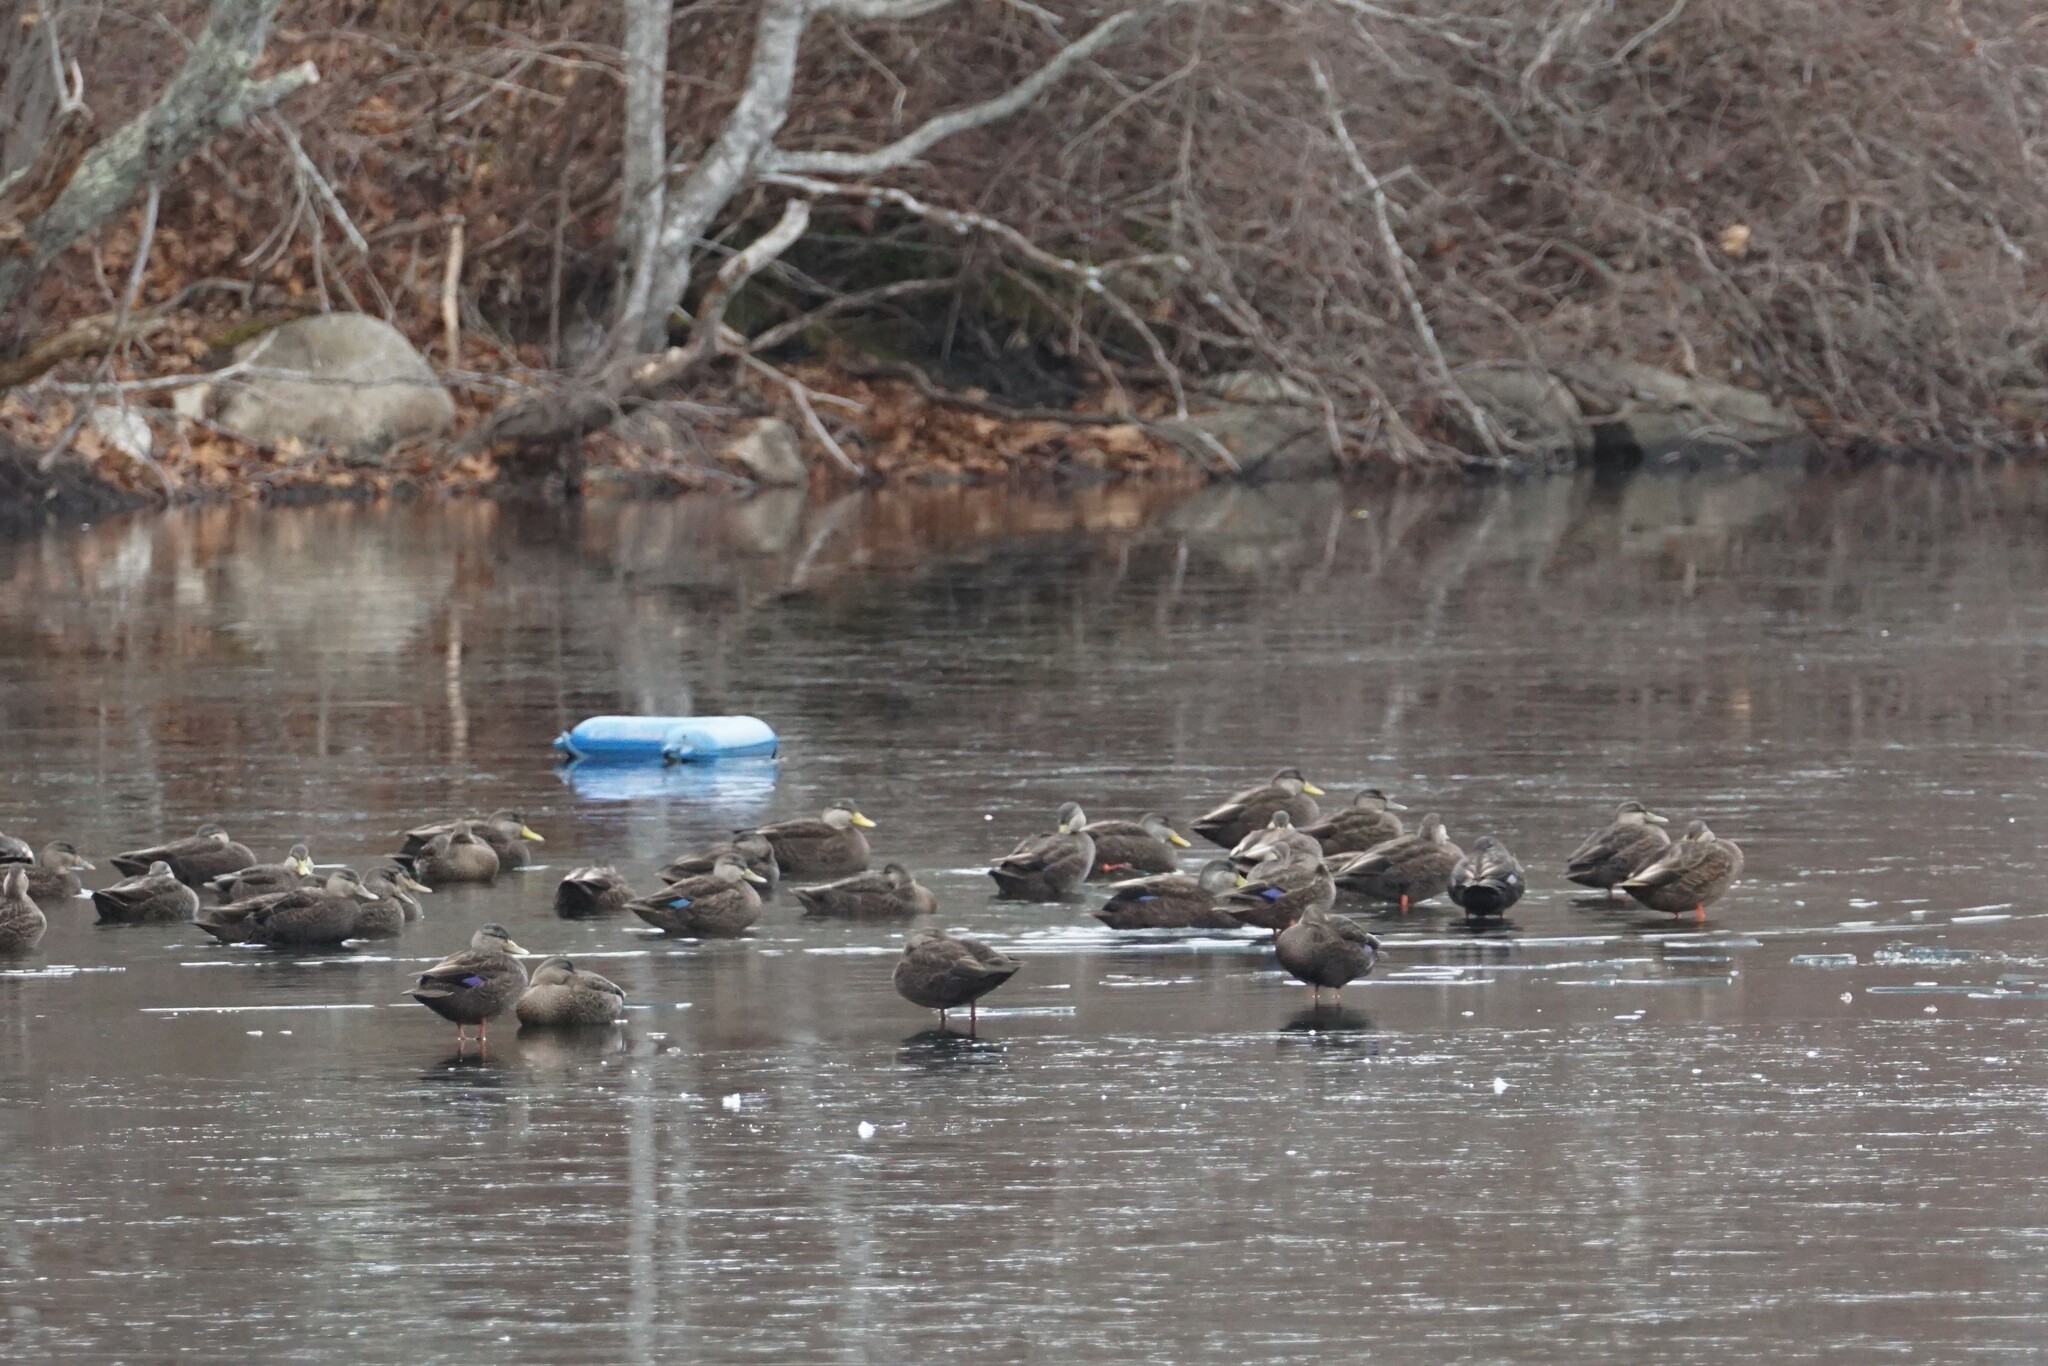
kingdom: Animalia
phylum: Chordata
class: Aves
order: Anseriformes
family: Anatidae
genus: Anas
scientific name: Anas rubripes
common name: American black duck
